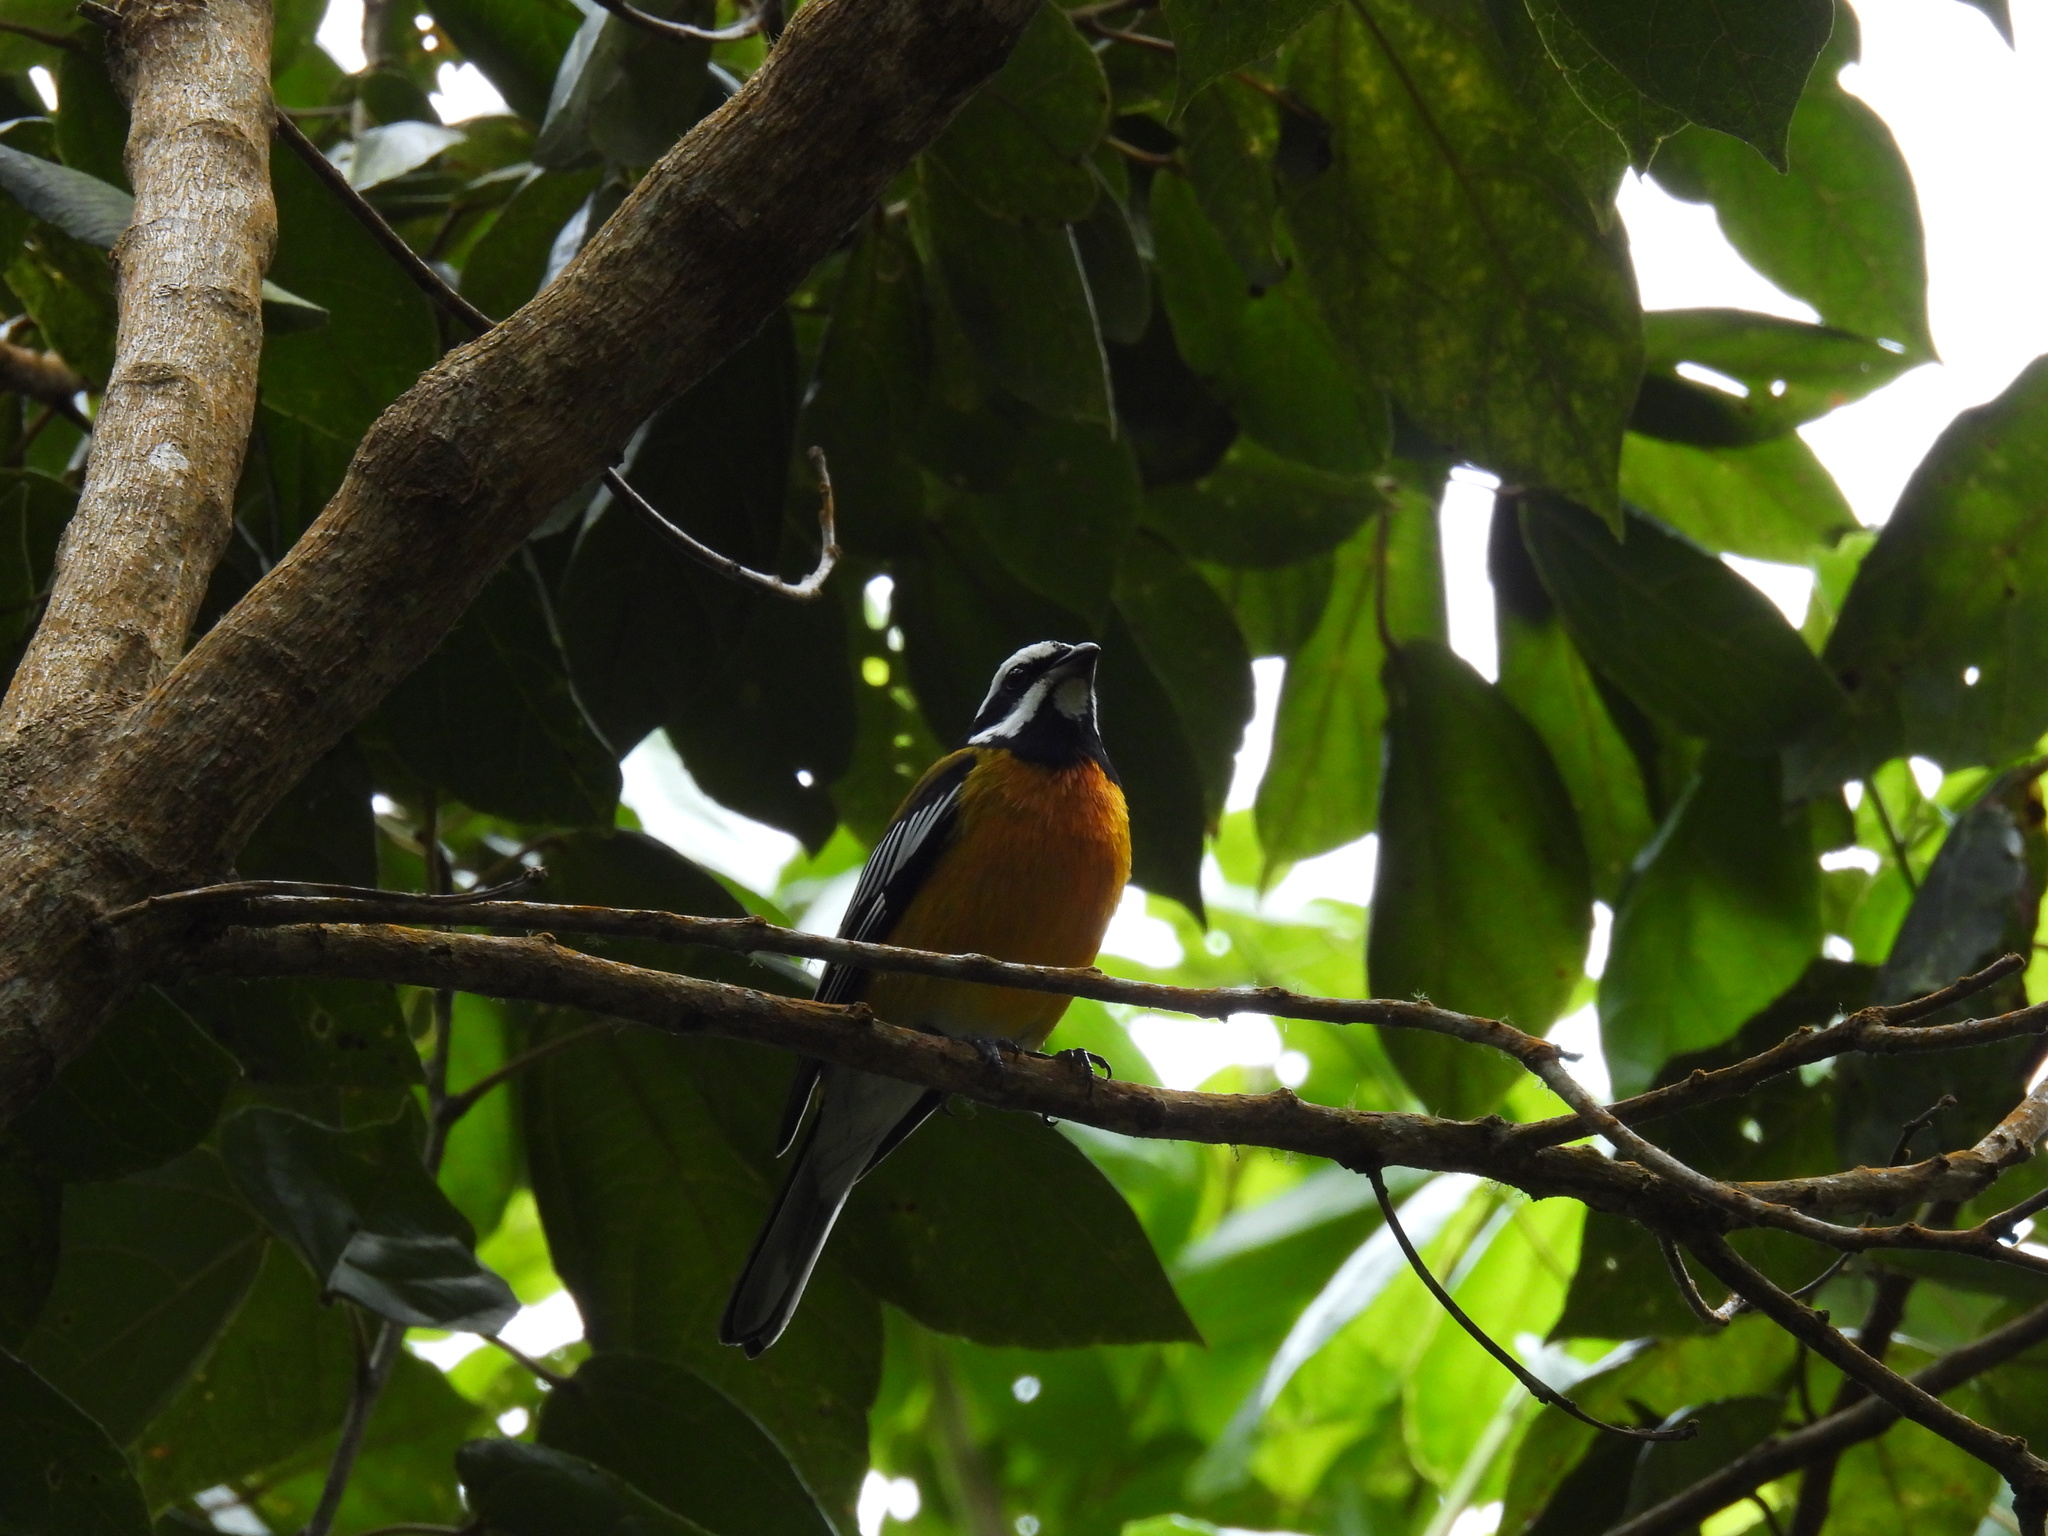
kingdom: Animalia
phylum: Chordata
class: Aves
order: Passeriformes
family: Spindalidae
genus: Spindalis
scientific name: Spindalis nigricephala
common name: Jamaican spindalis
